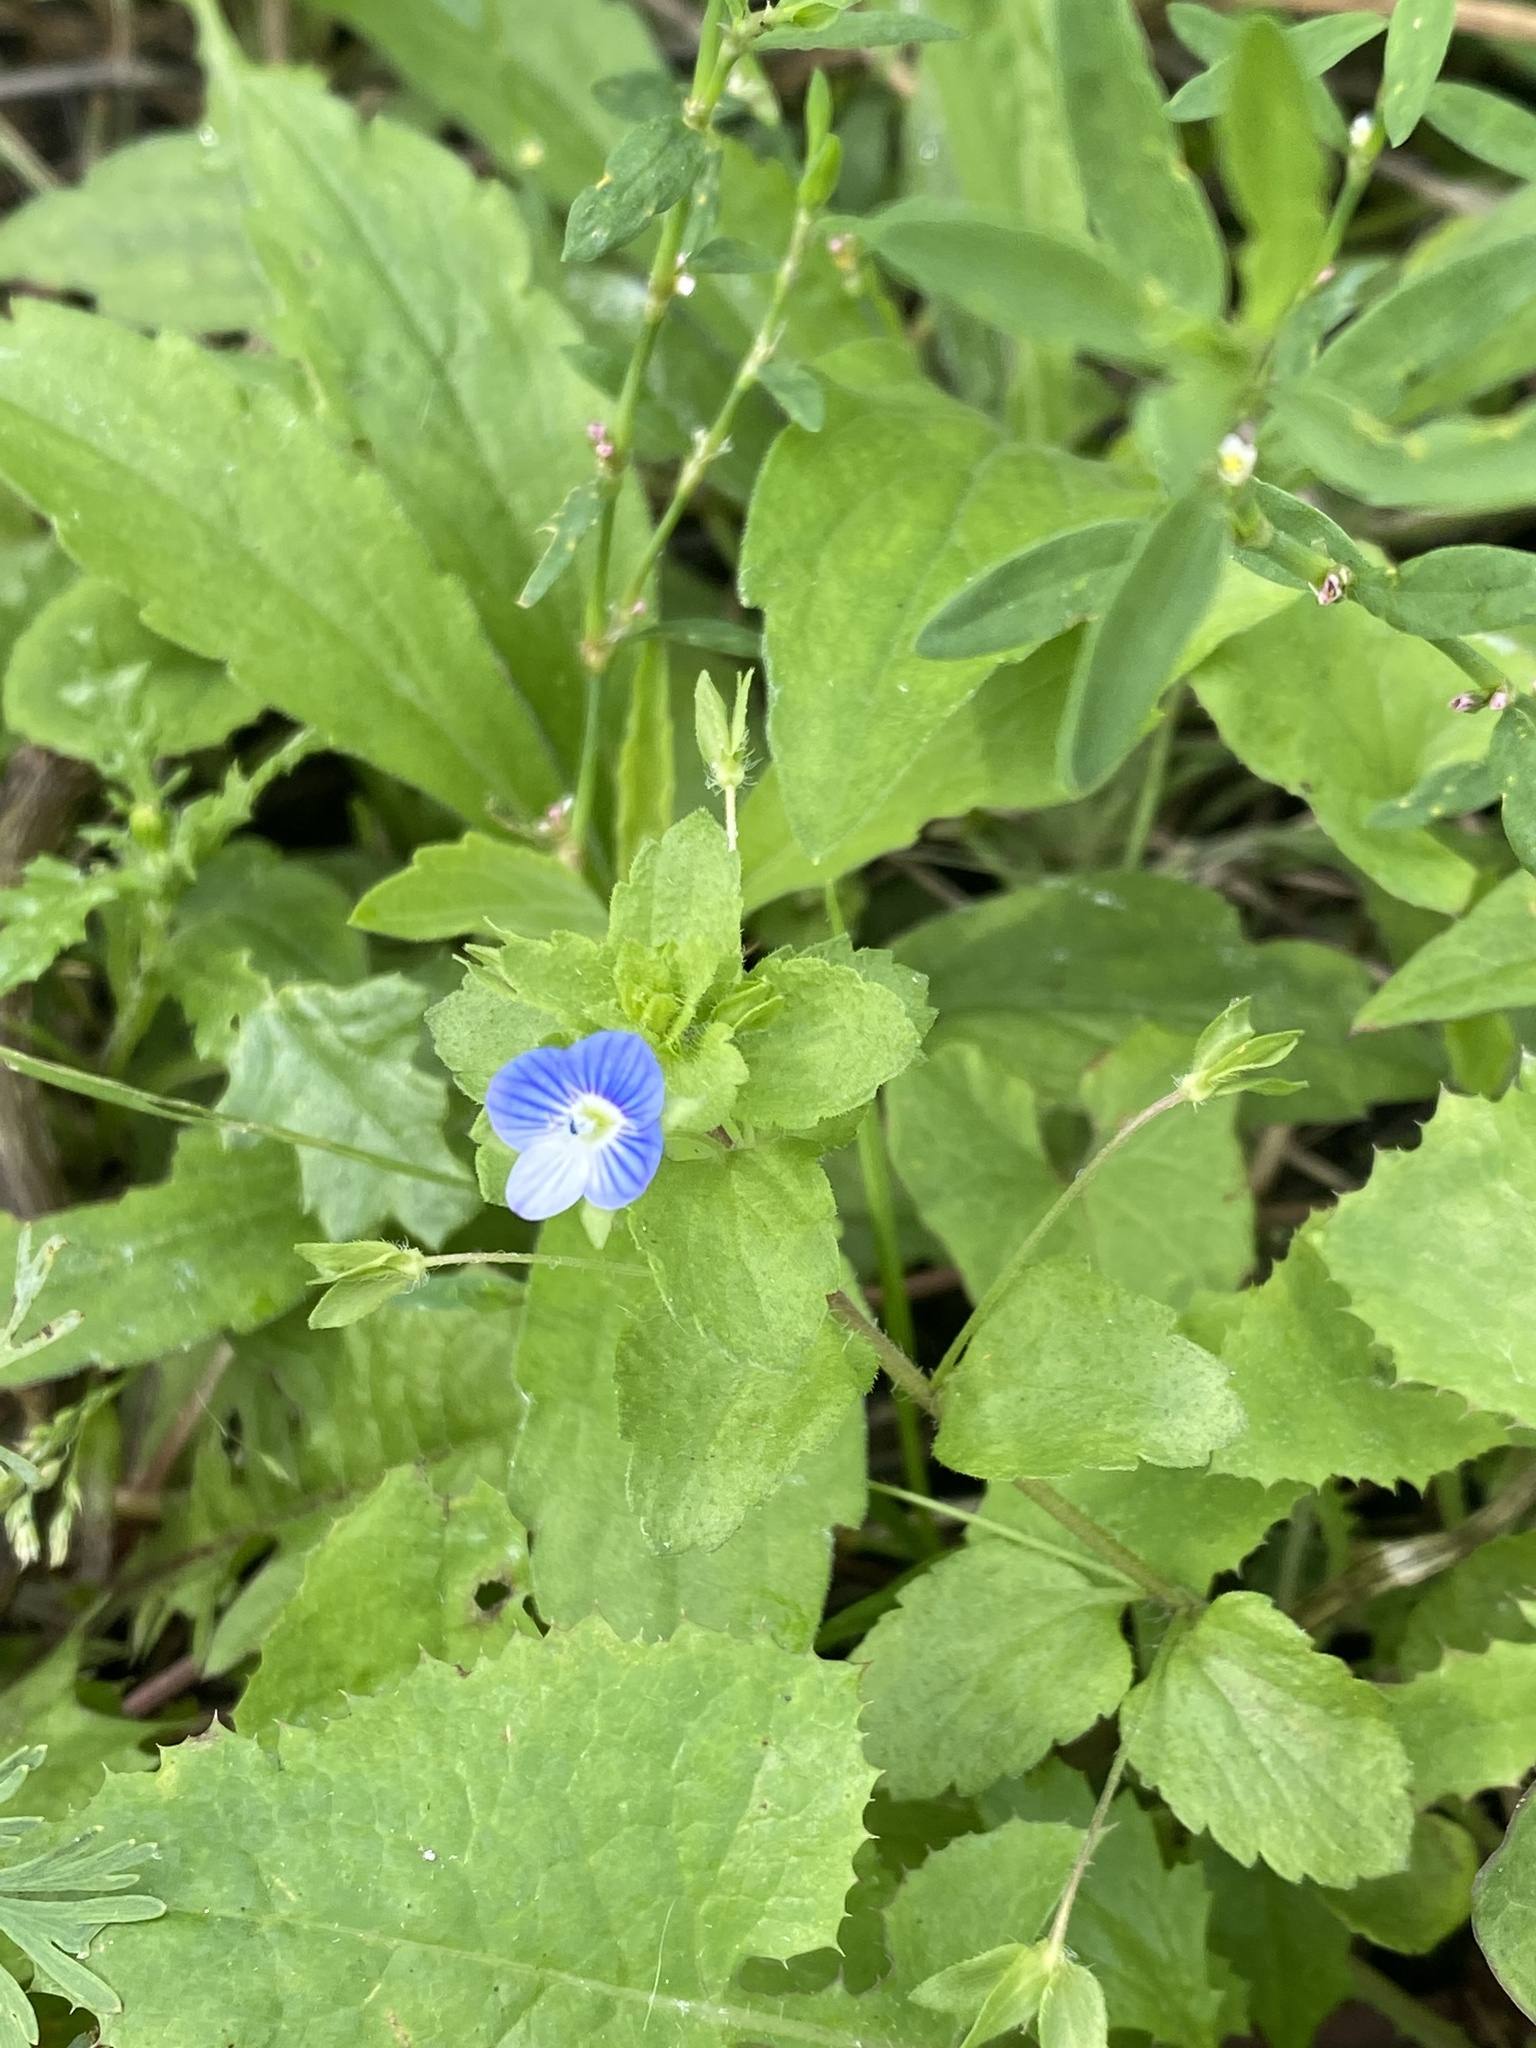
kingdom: Plantae
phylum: Tracheophyta
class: Magnoliopsida
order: Lamiales
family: Plantaginaceae
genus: Veronica
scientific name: Veronica persica
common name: Common field-speedwell
